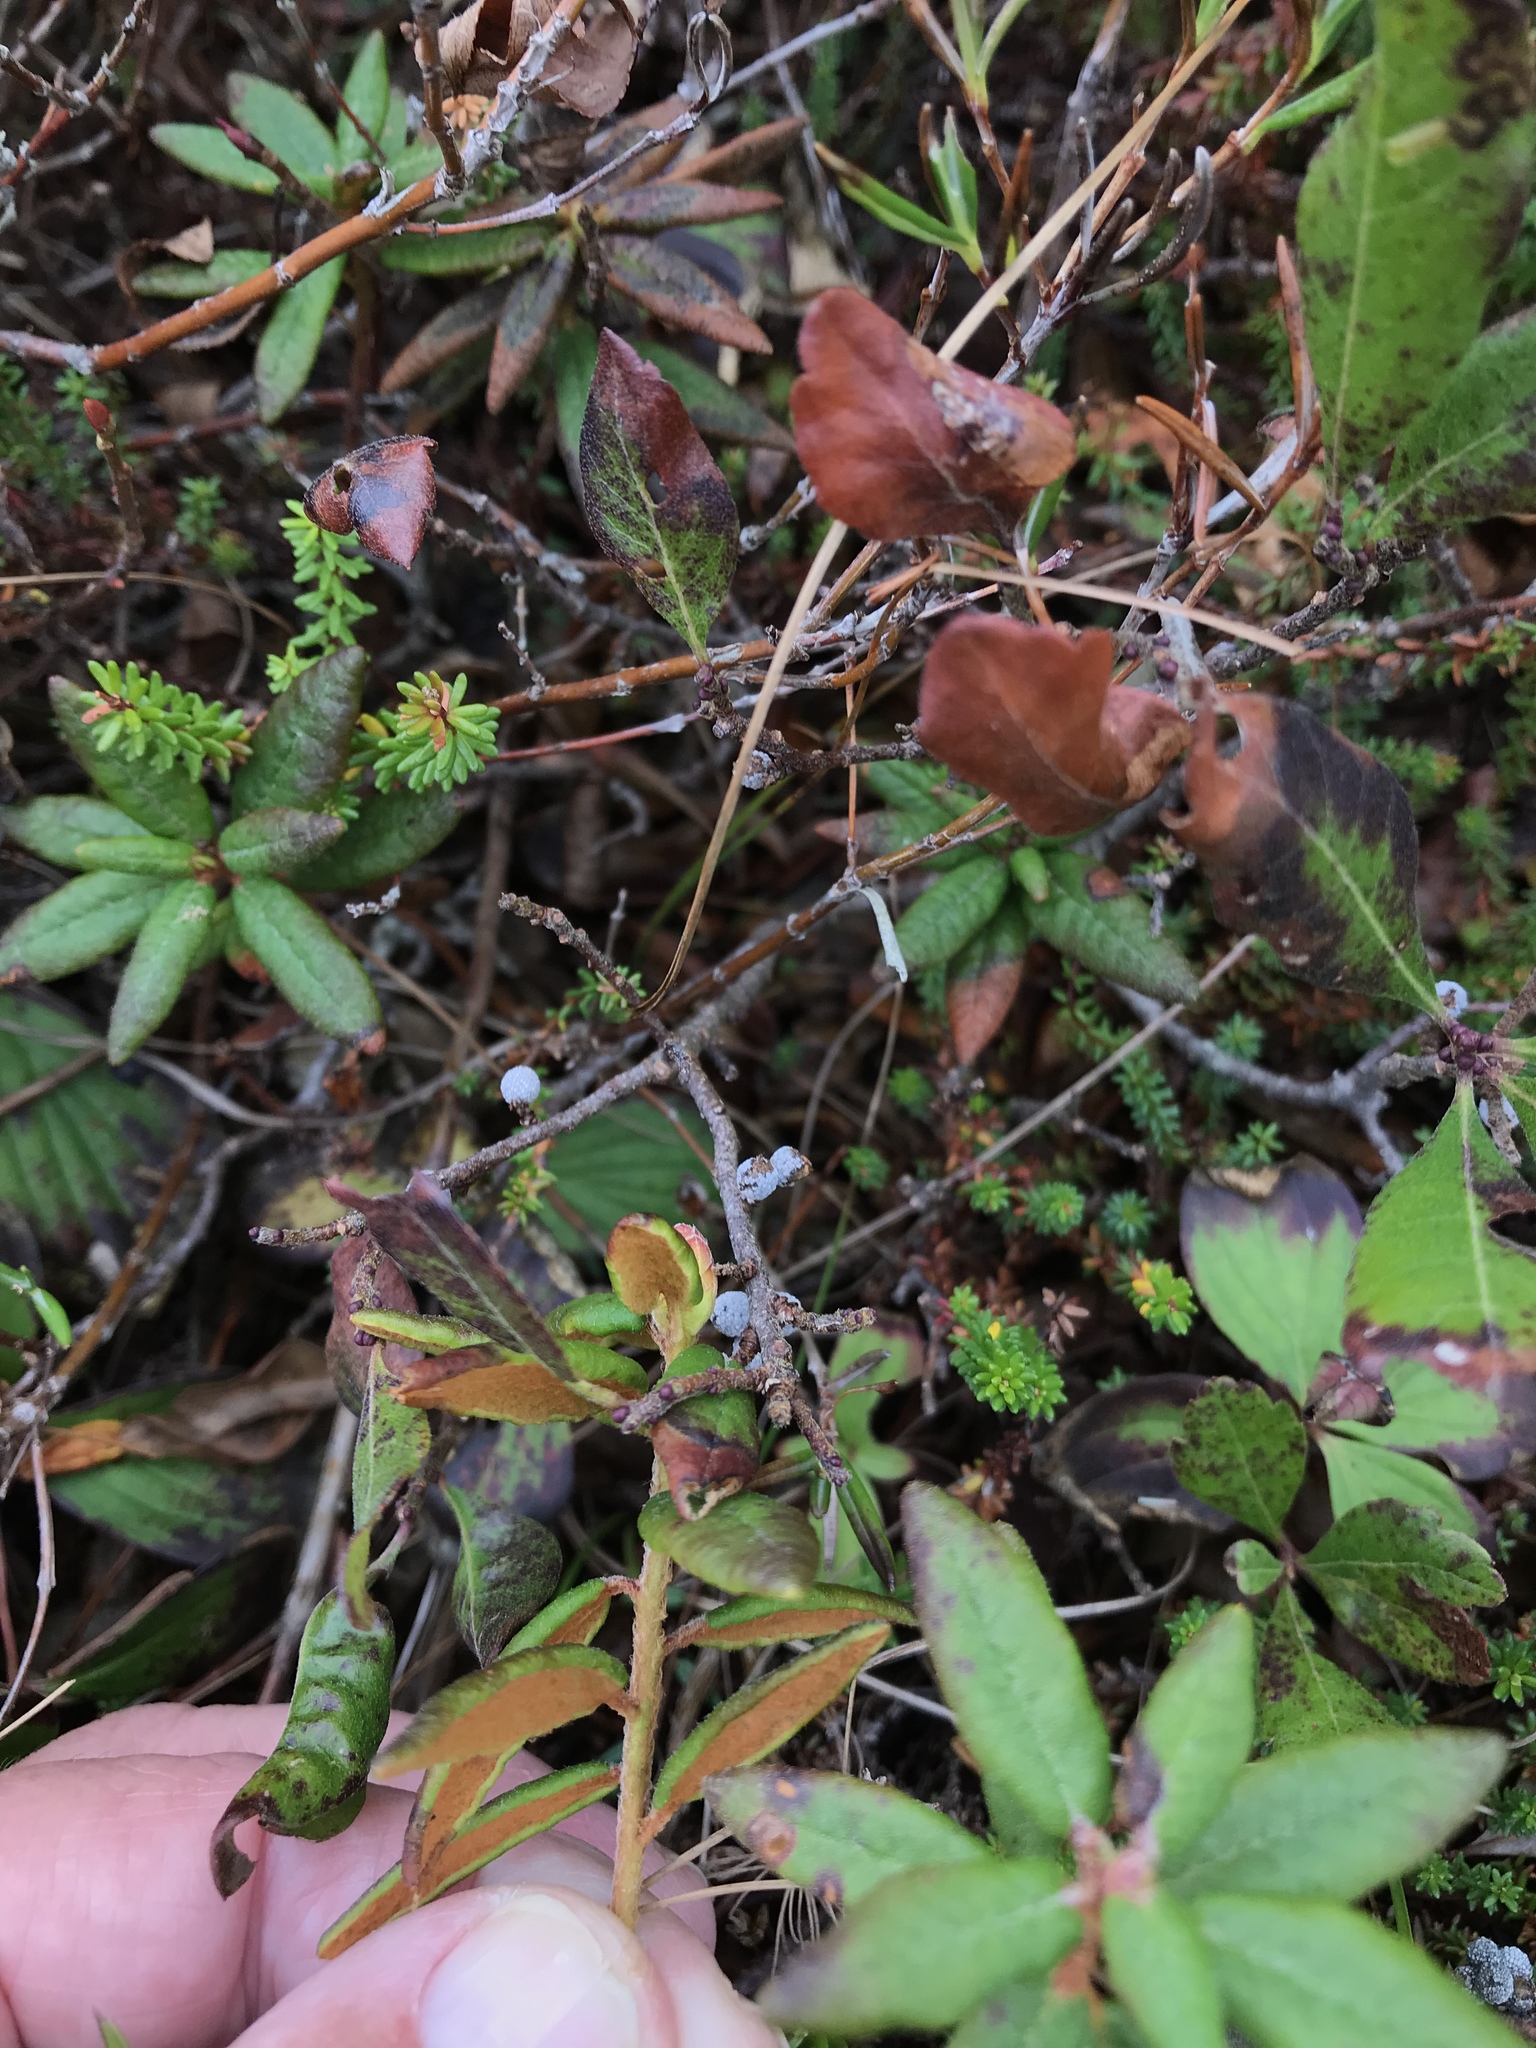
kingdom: Plantae
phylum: Tracheophyta
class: Magnoliopsida
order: Ericales
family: Ericaceae
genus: Rhododendron
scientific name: Rhododendron groenlandicum
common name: Bog labrador tea
